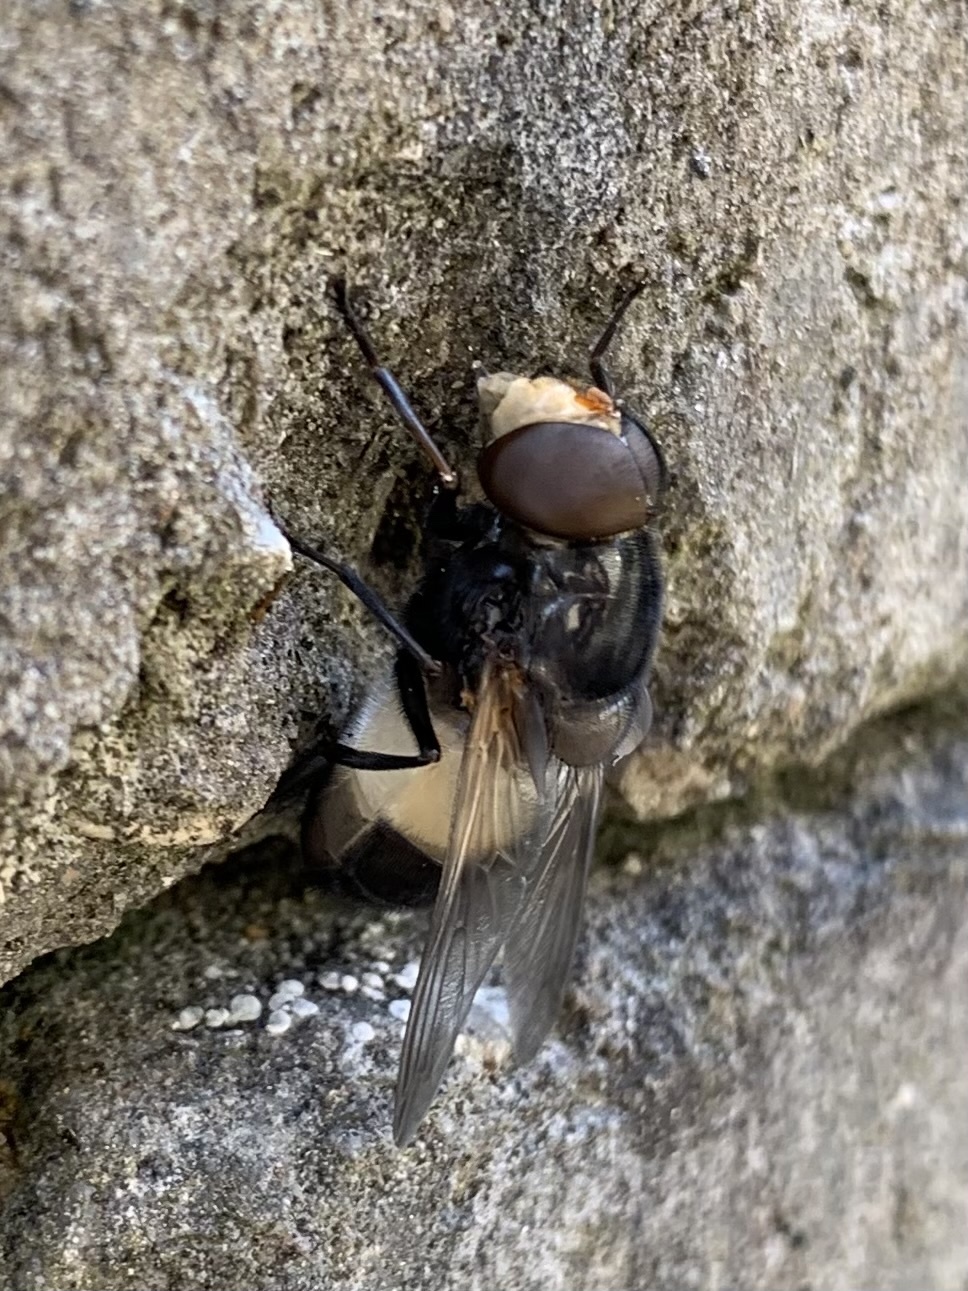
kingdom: Animalia
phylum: Arthropoda
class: Insecta
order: Diptera
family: Syrphidae
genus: Volucella
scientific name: Volucella pellucens
